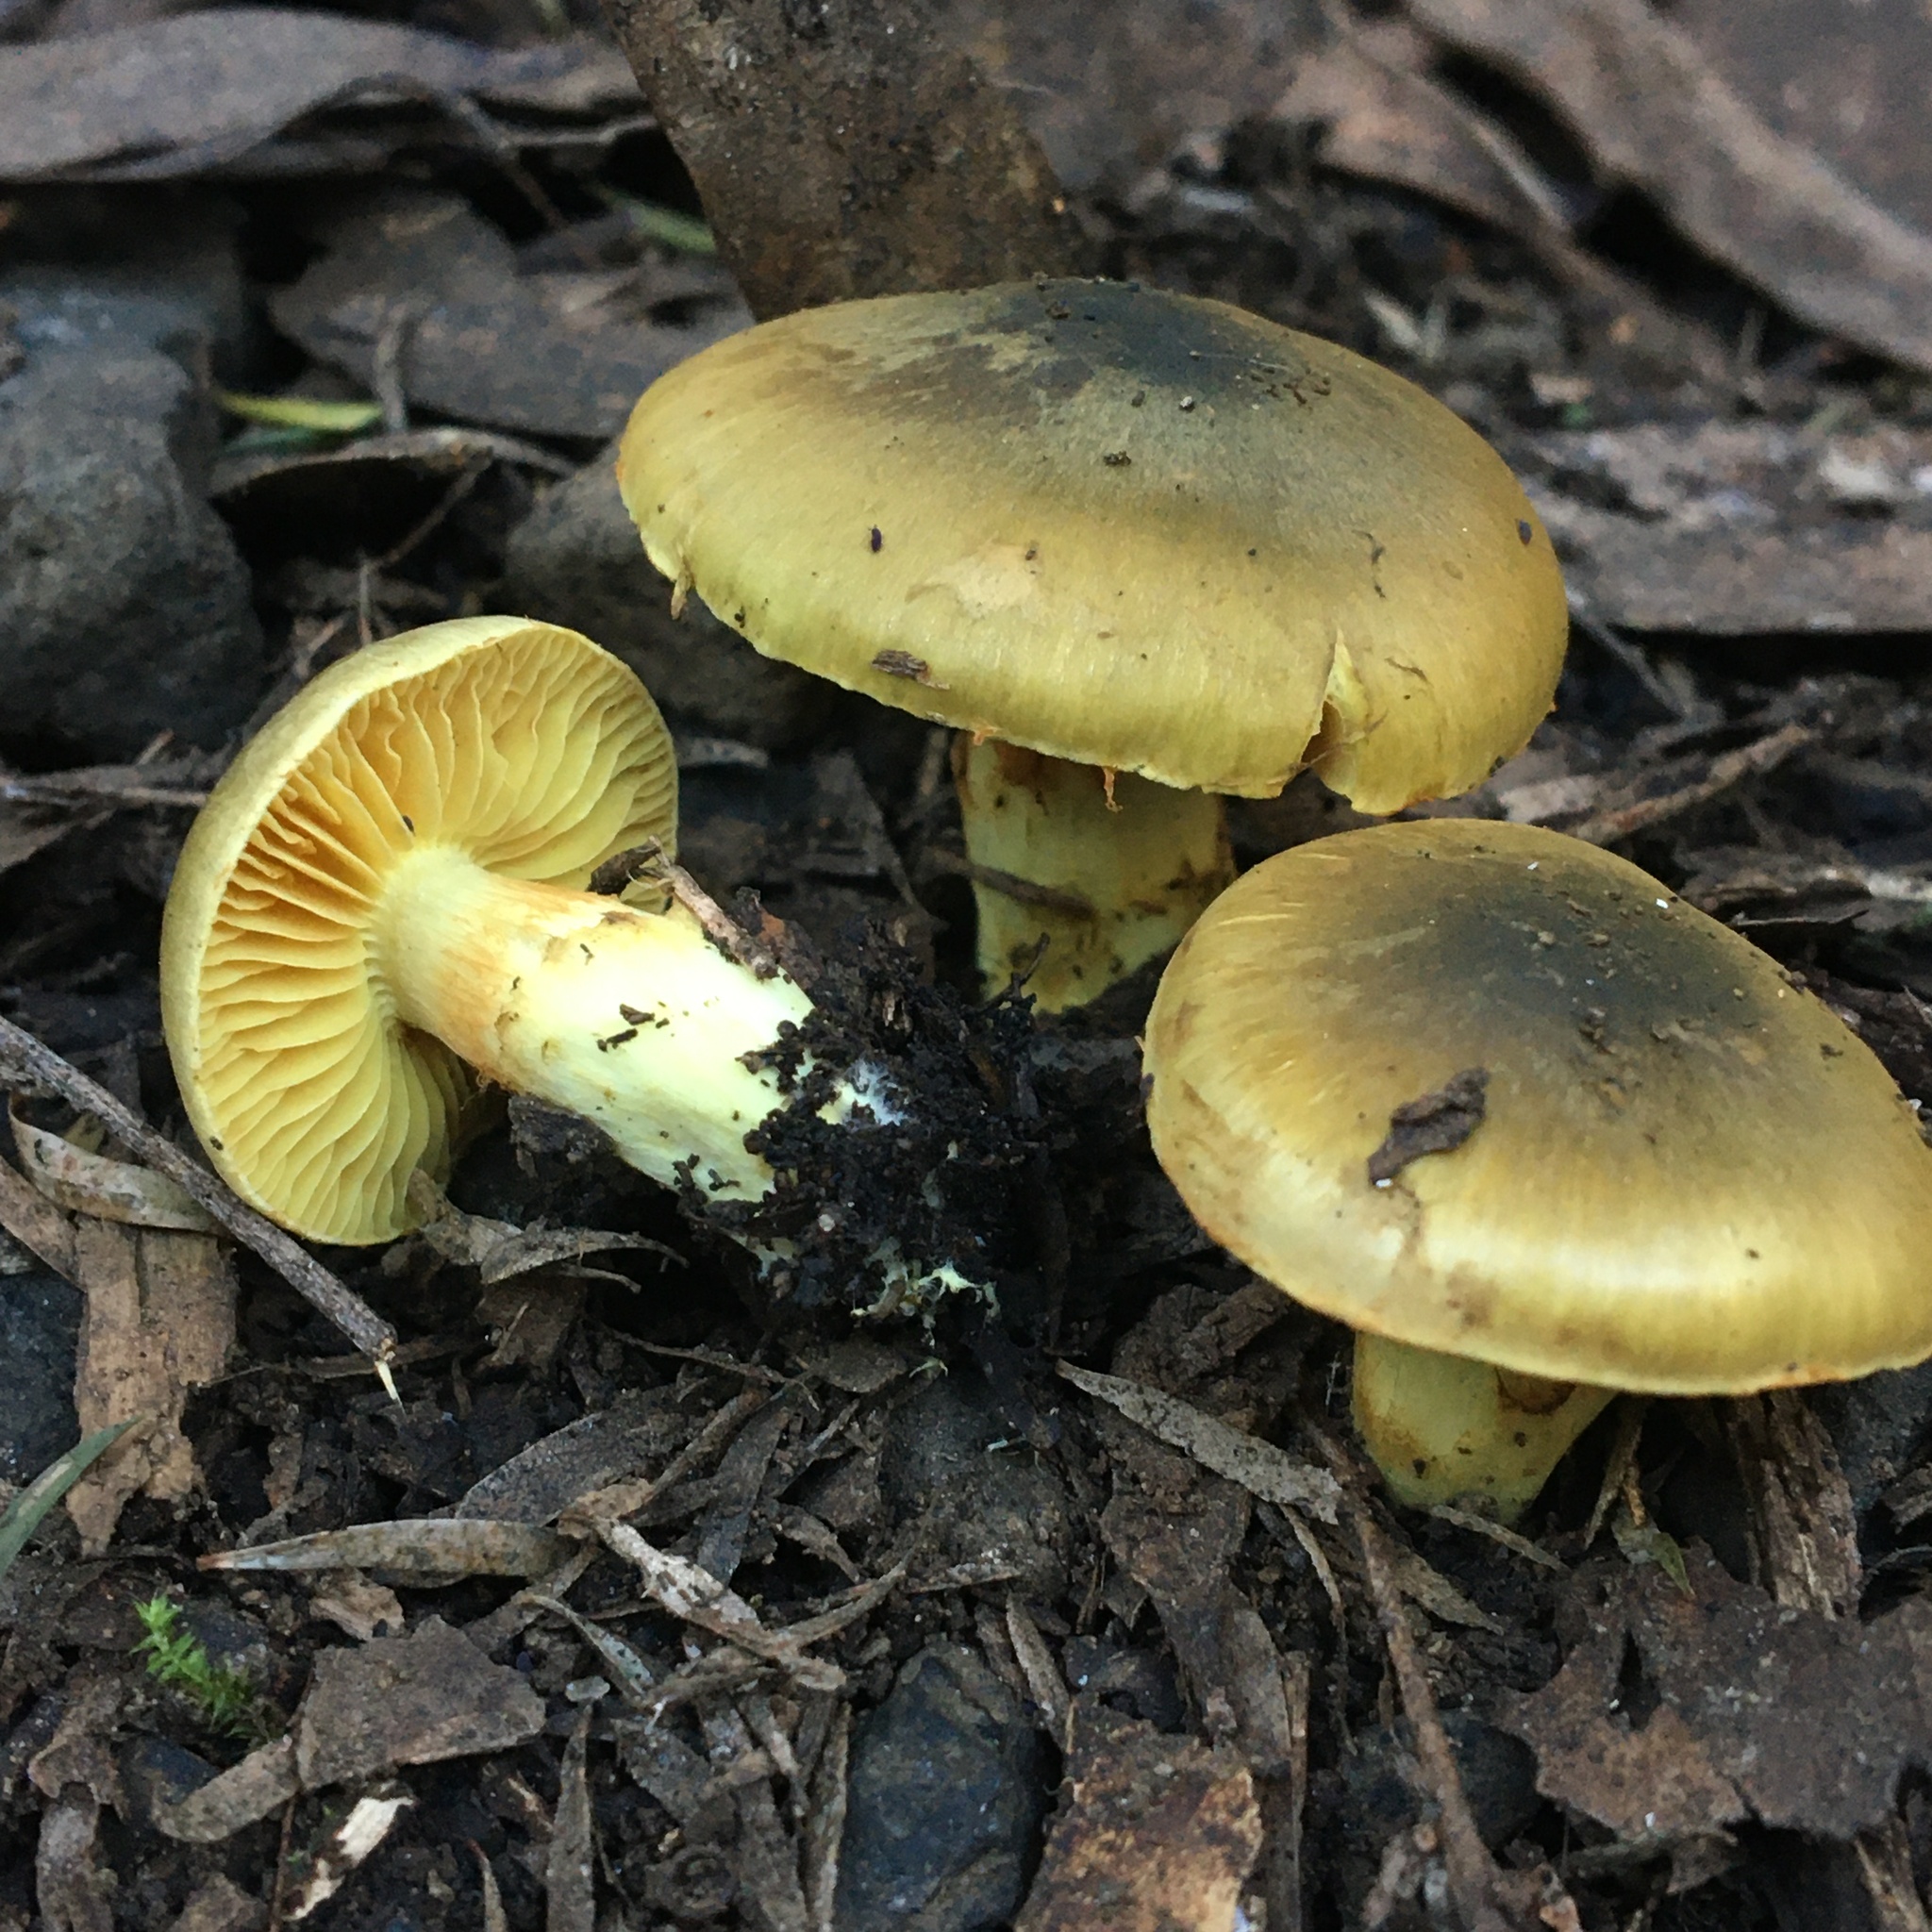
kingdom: Fungi
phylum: Basidiomycota
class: Agaricomycetes
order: Agaricales
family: Cortinariaceae
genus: Cortinarius
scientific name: Cortinarius austrovenetus
